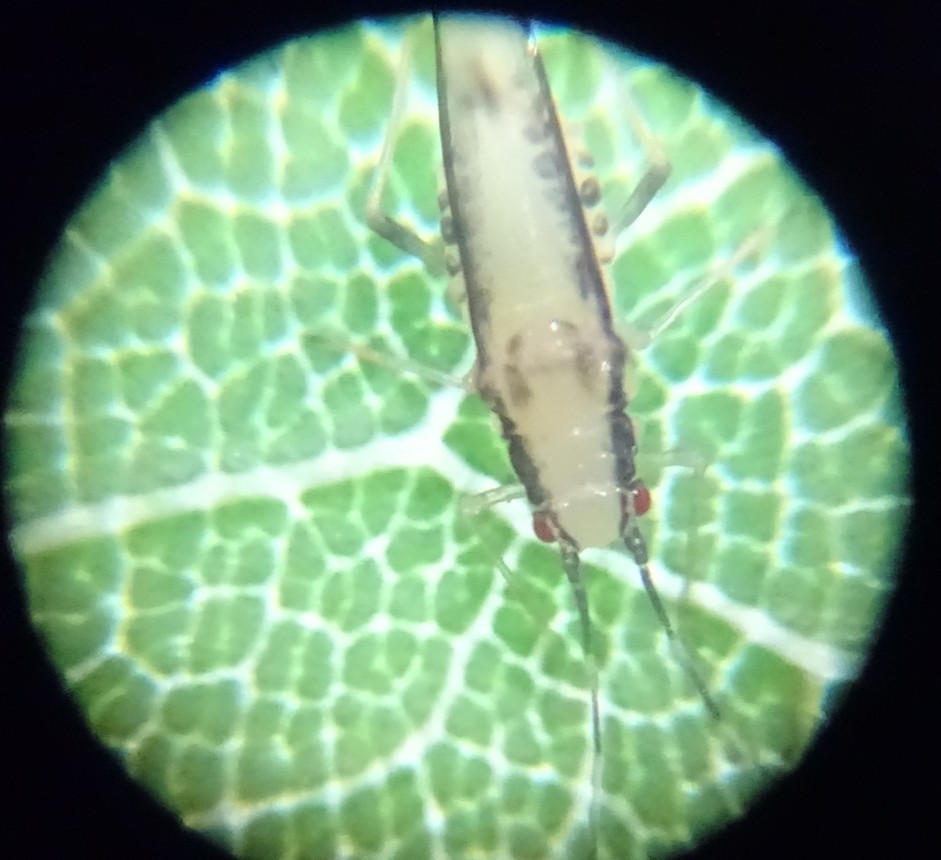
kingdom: Animalia
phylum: Arthropoda
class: Insecta
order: Hemiptera
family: Aphididae
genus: Eucallipterus
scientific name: Eucallipterus tiliae
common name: Aphid
